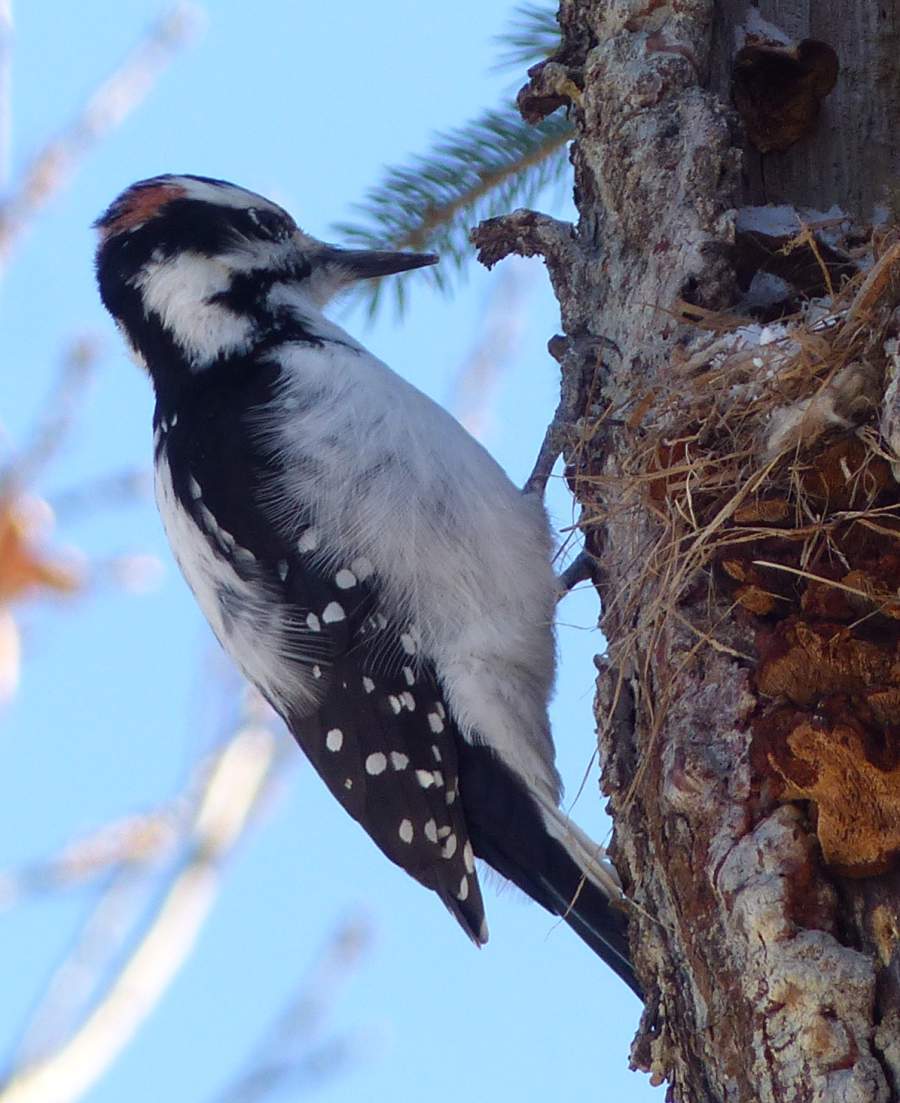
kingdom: Animalia
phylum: Chordata
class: Aves
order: Piciformes
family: Picidae
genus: Leuconotopicus
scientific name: Leuconotopicus villosus
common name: Hairy woodpecker
